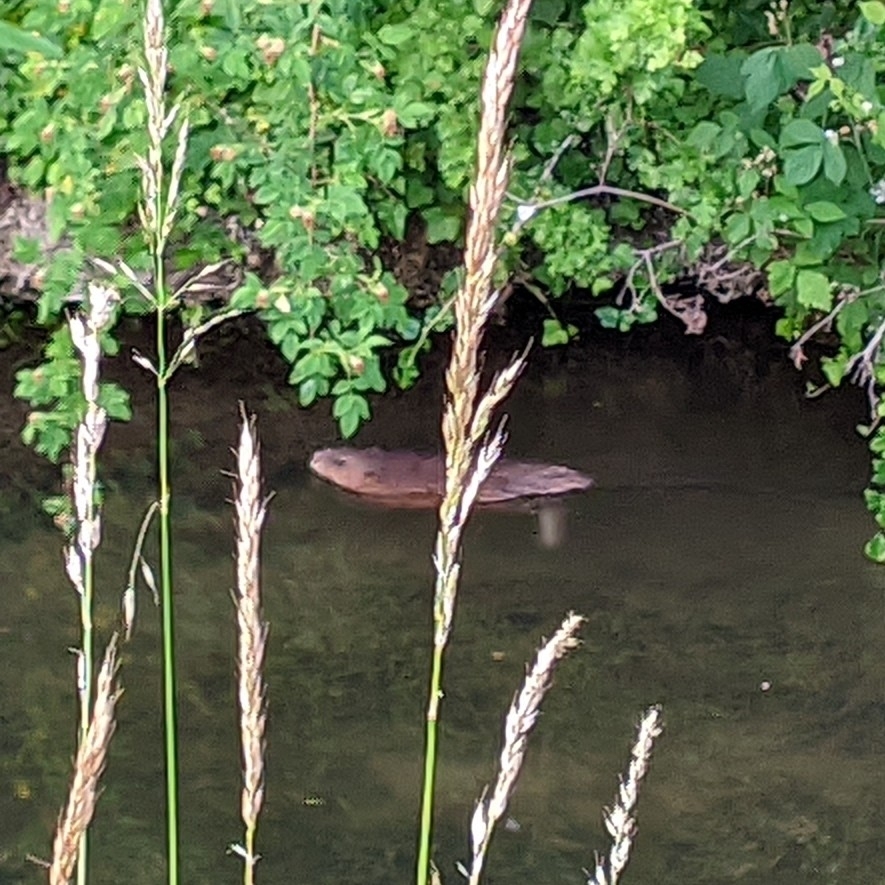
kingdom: Animalia
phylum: Chordata
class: Mammalia
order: Rodentia
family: Cricetidae
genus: Ondatra
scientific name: Ondatra zibethicus
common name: Muskrat
